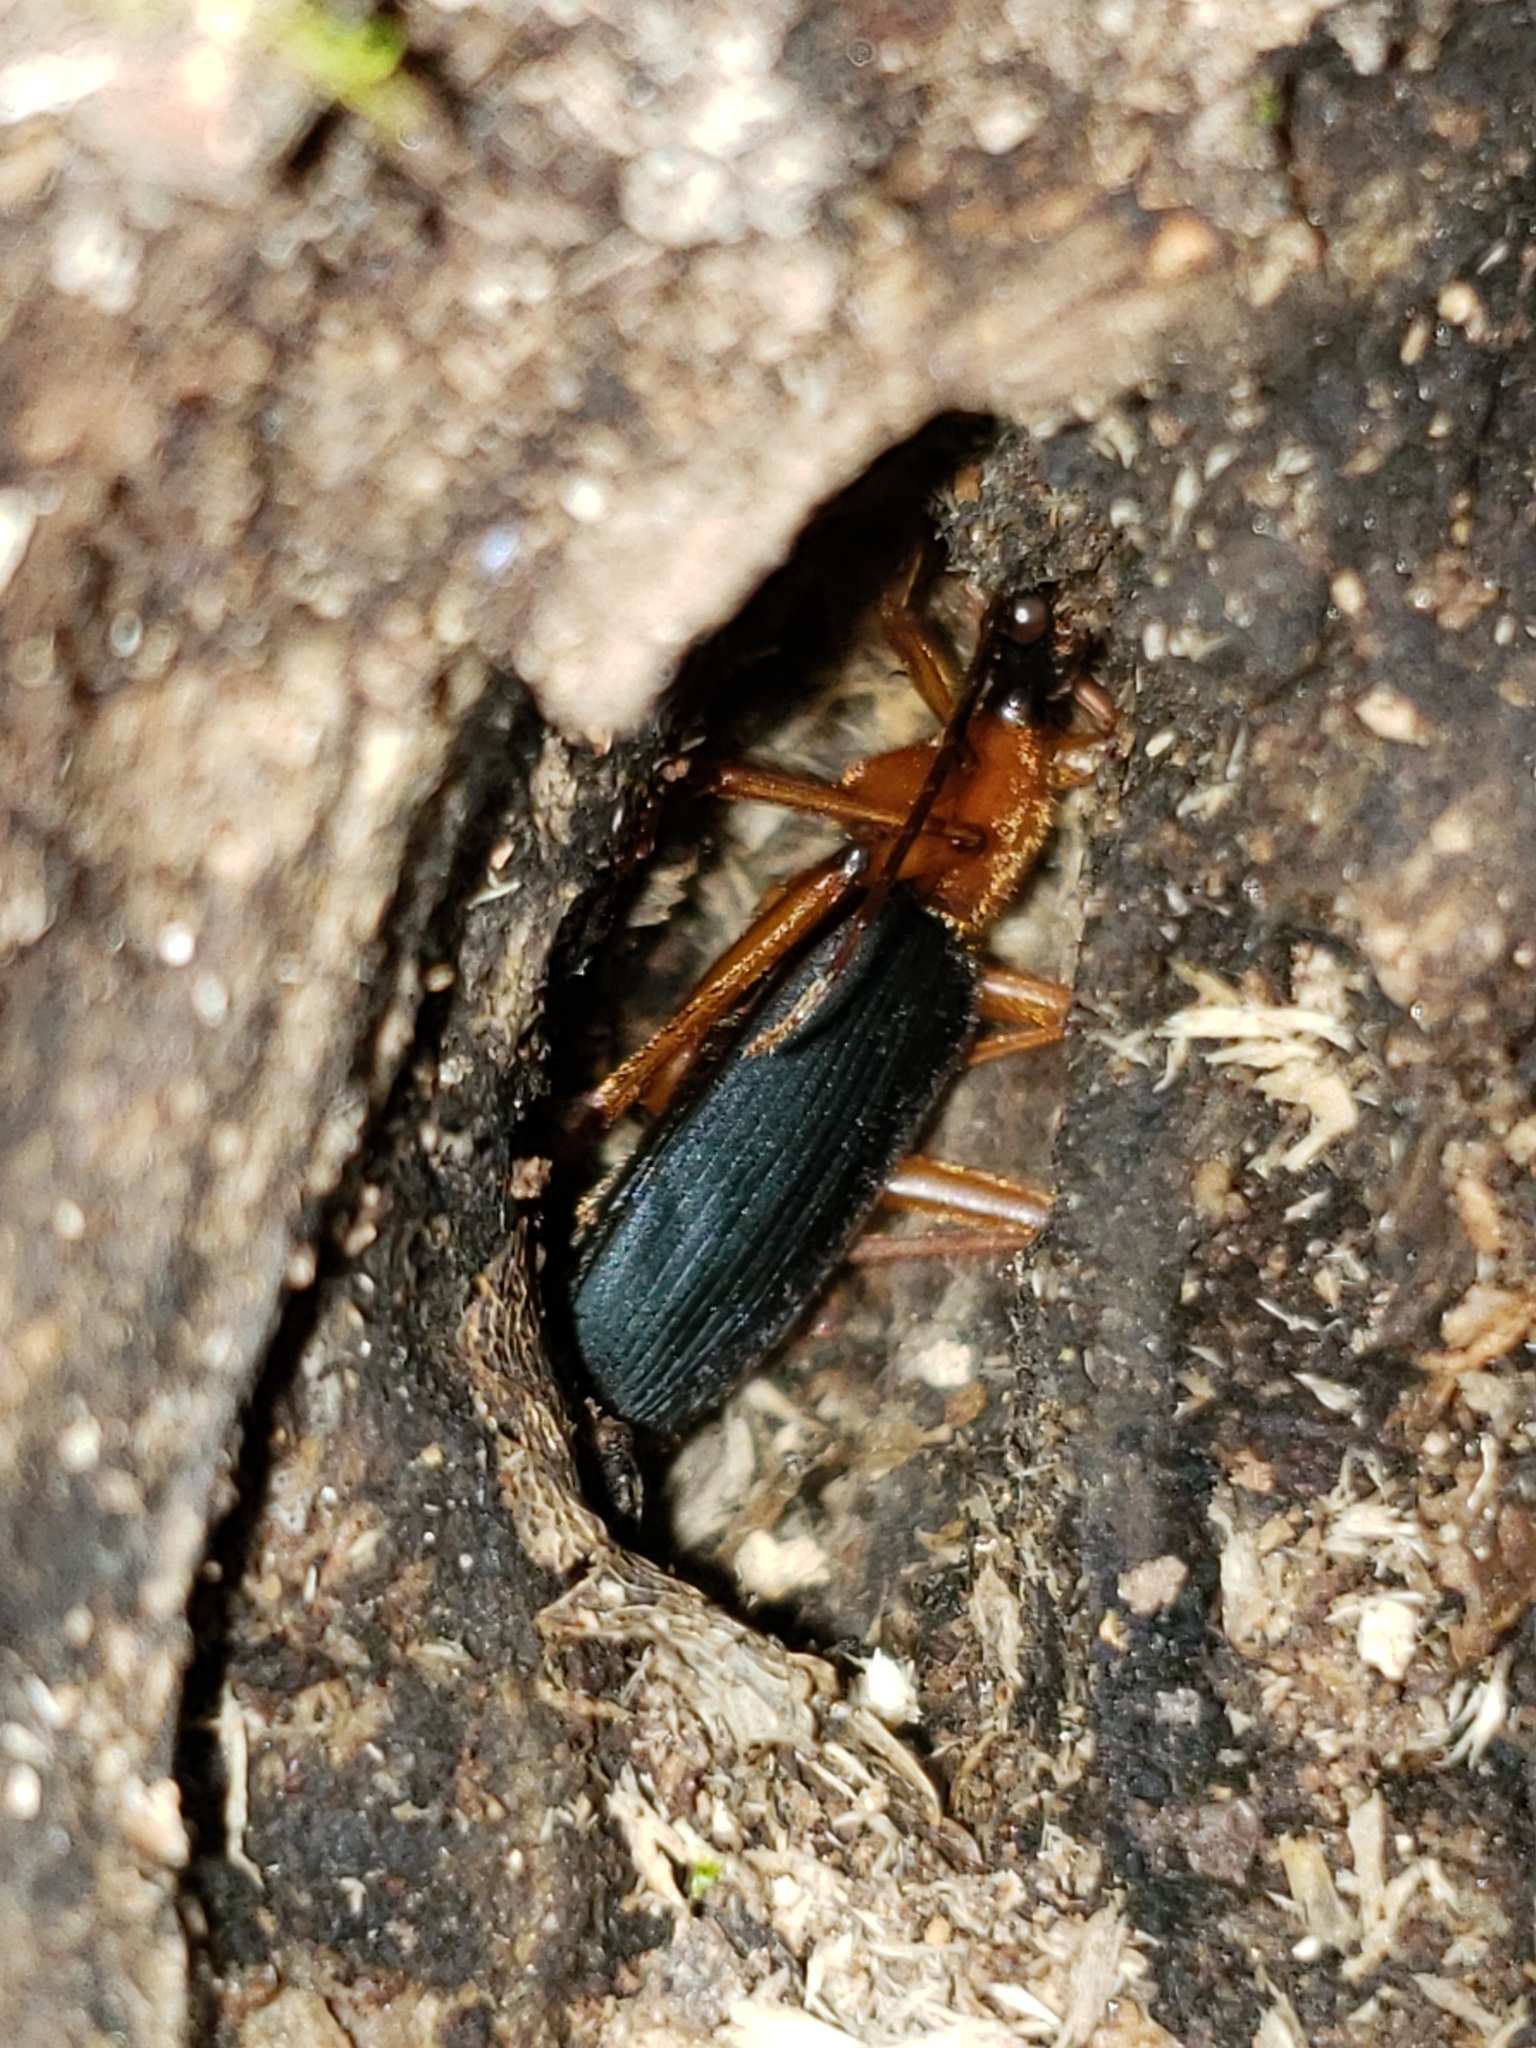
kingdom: Animalia
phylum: Arthropoda
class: Insecta
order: Coleoptera
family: Carabidae
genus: Galerita
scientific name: Galerita bicolor
